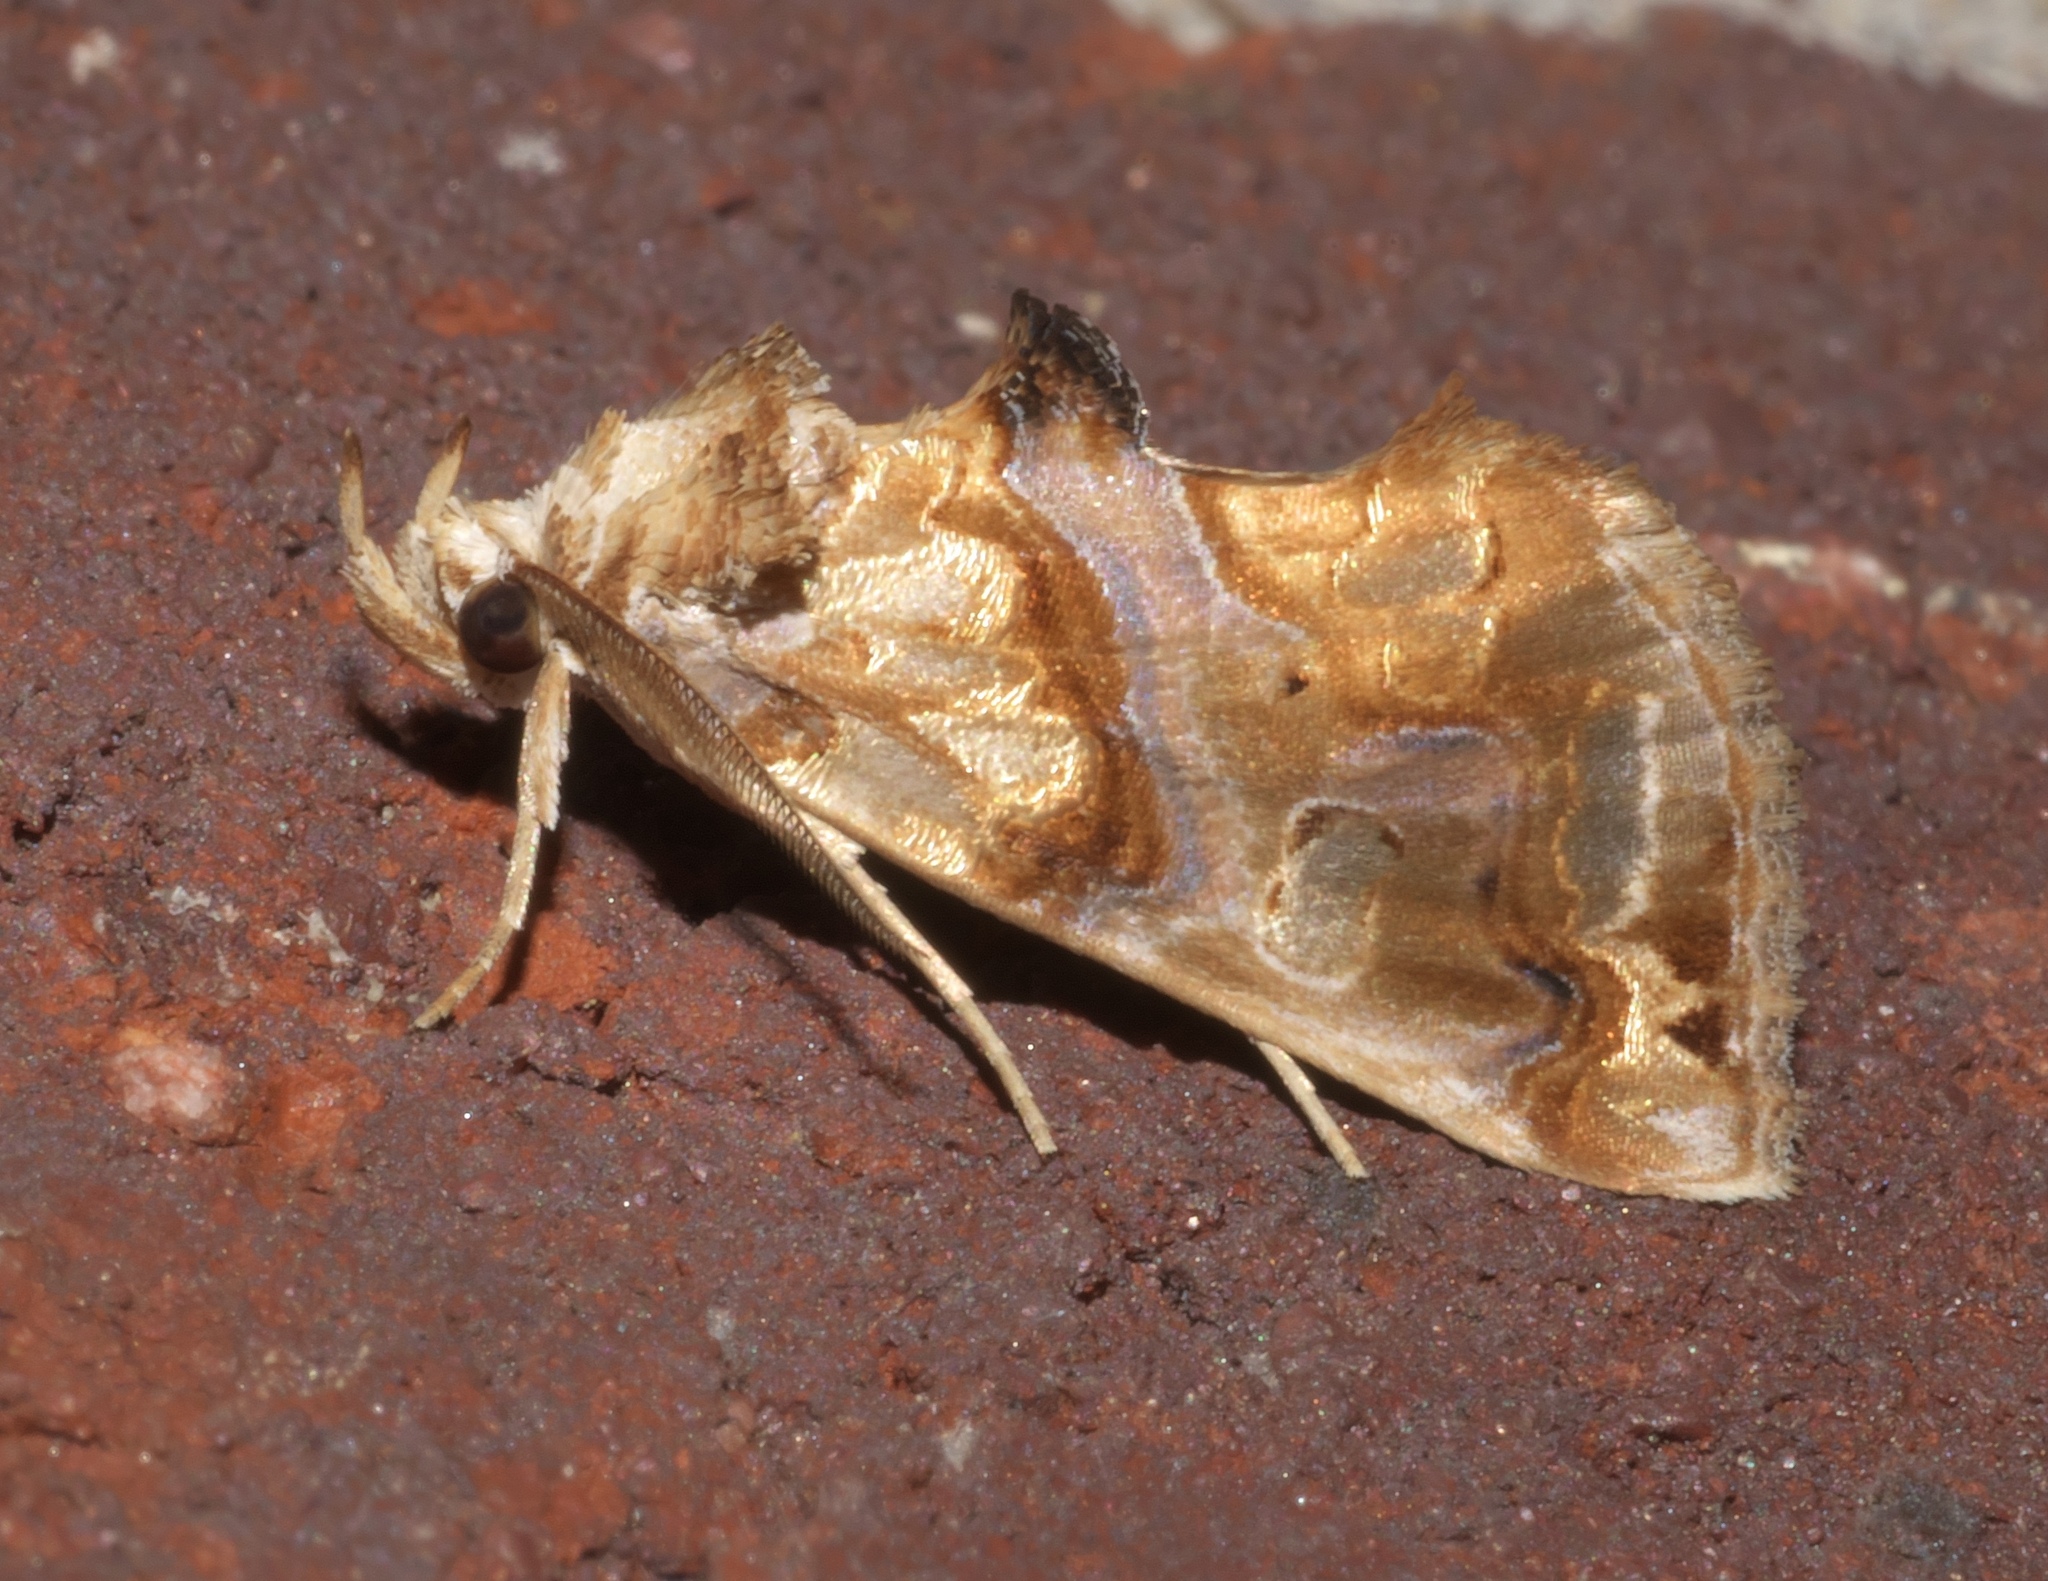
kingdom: Animalia
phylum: Arthropoda
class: Insecta
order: Lepidoptera
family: Erebidae
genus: Plusiodonta
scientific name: Plusiodonta compressipalpis
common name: Moonseed moth
